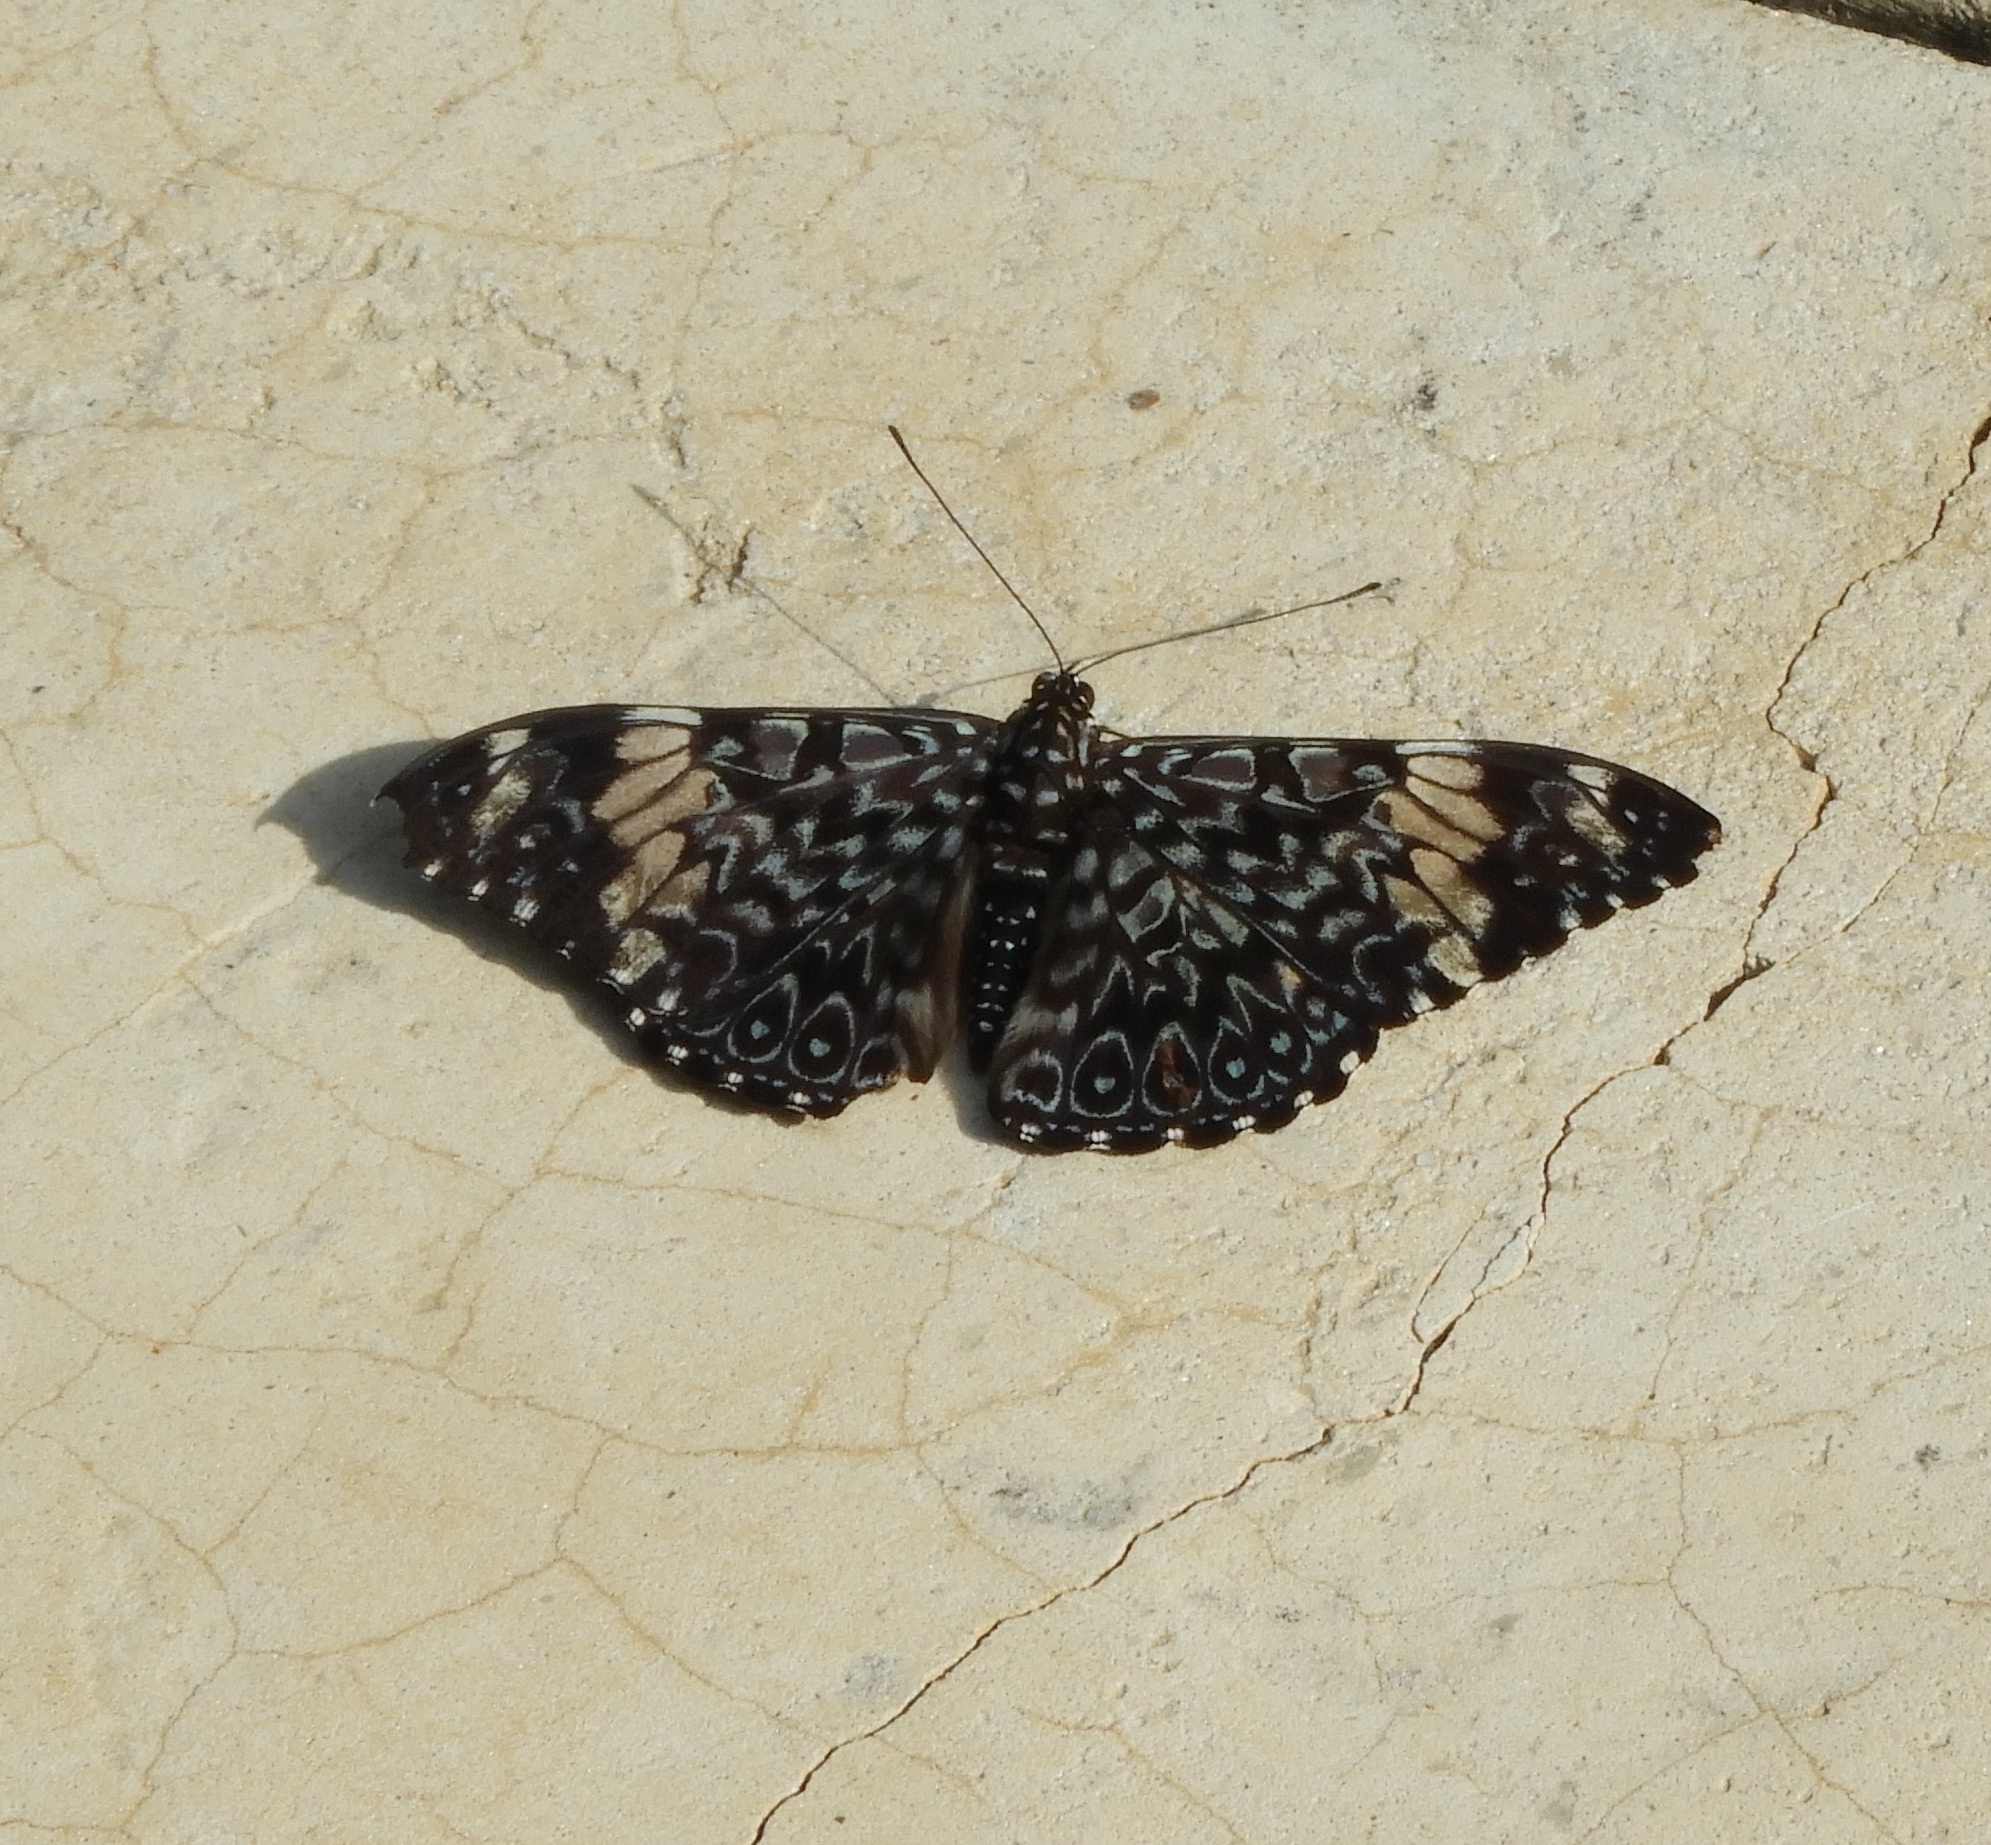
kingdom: Animalia
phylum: Arthropoda
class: Insecta
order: Lepidoptera
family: Nymphalidae
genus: Hamadryas
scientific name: Hamadryas amphinome
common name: Red cracker
